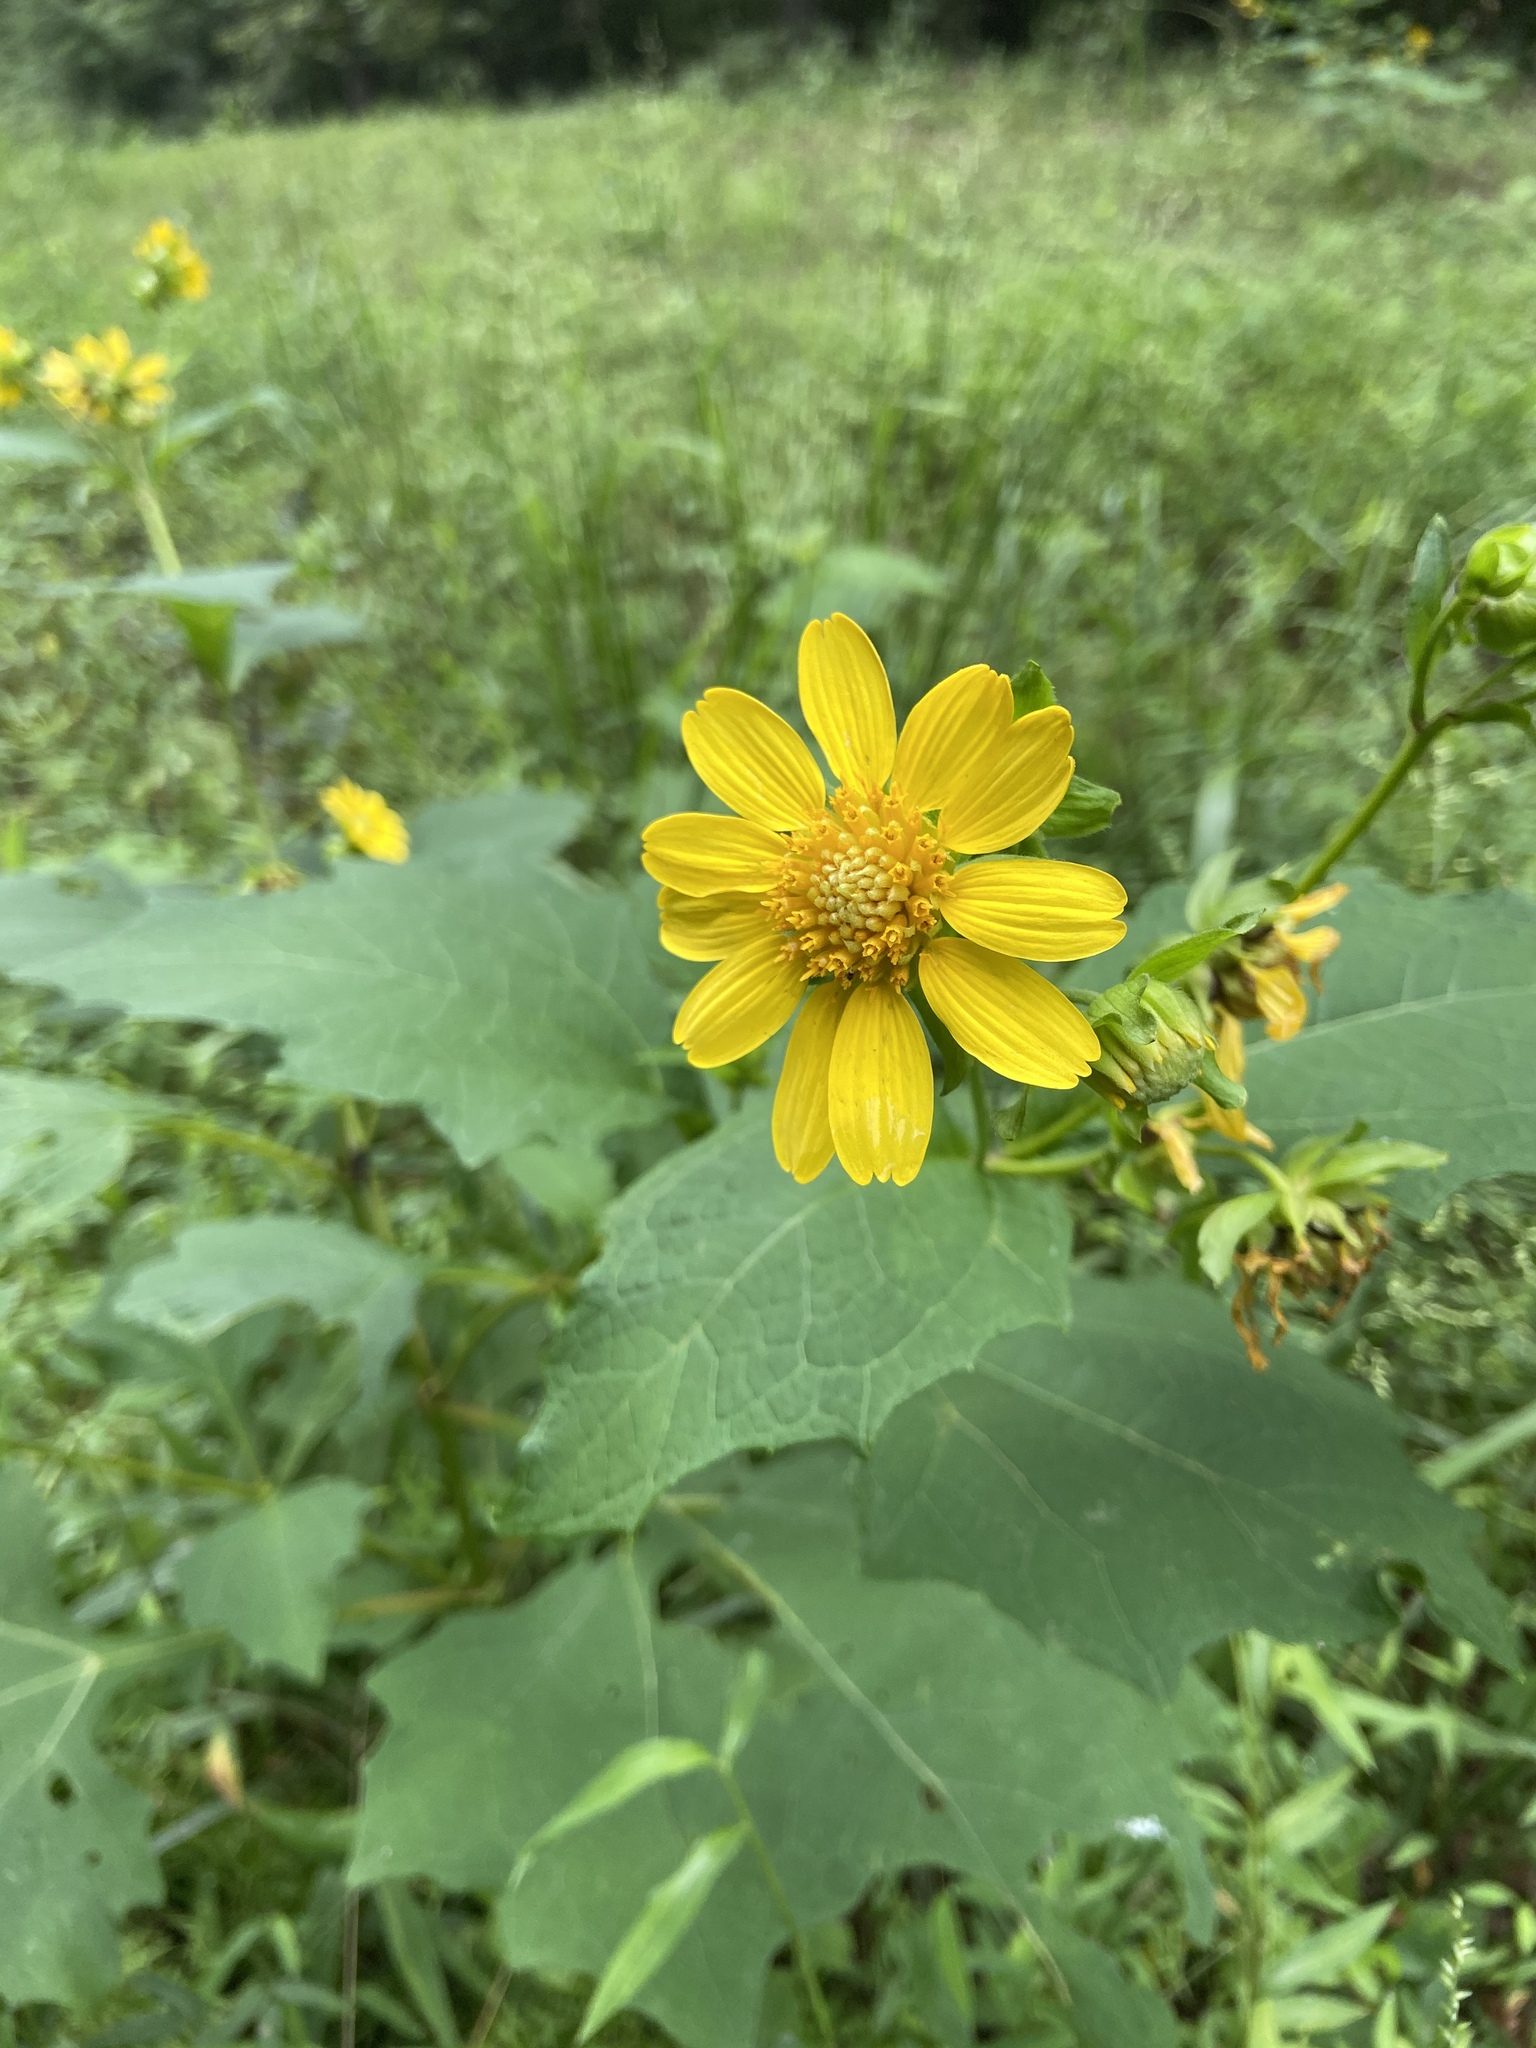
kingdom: Plantae
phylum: Tracheophyta
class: Magnoliopsida
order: Asterales
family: Asteraceae
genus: Smallanthus
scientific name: Smallanthus uvedalia
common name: Bear's-foot
